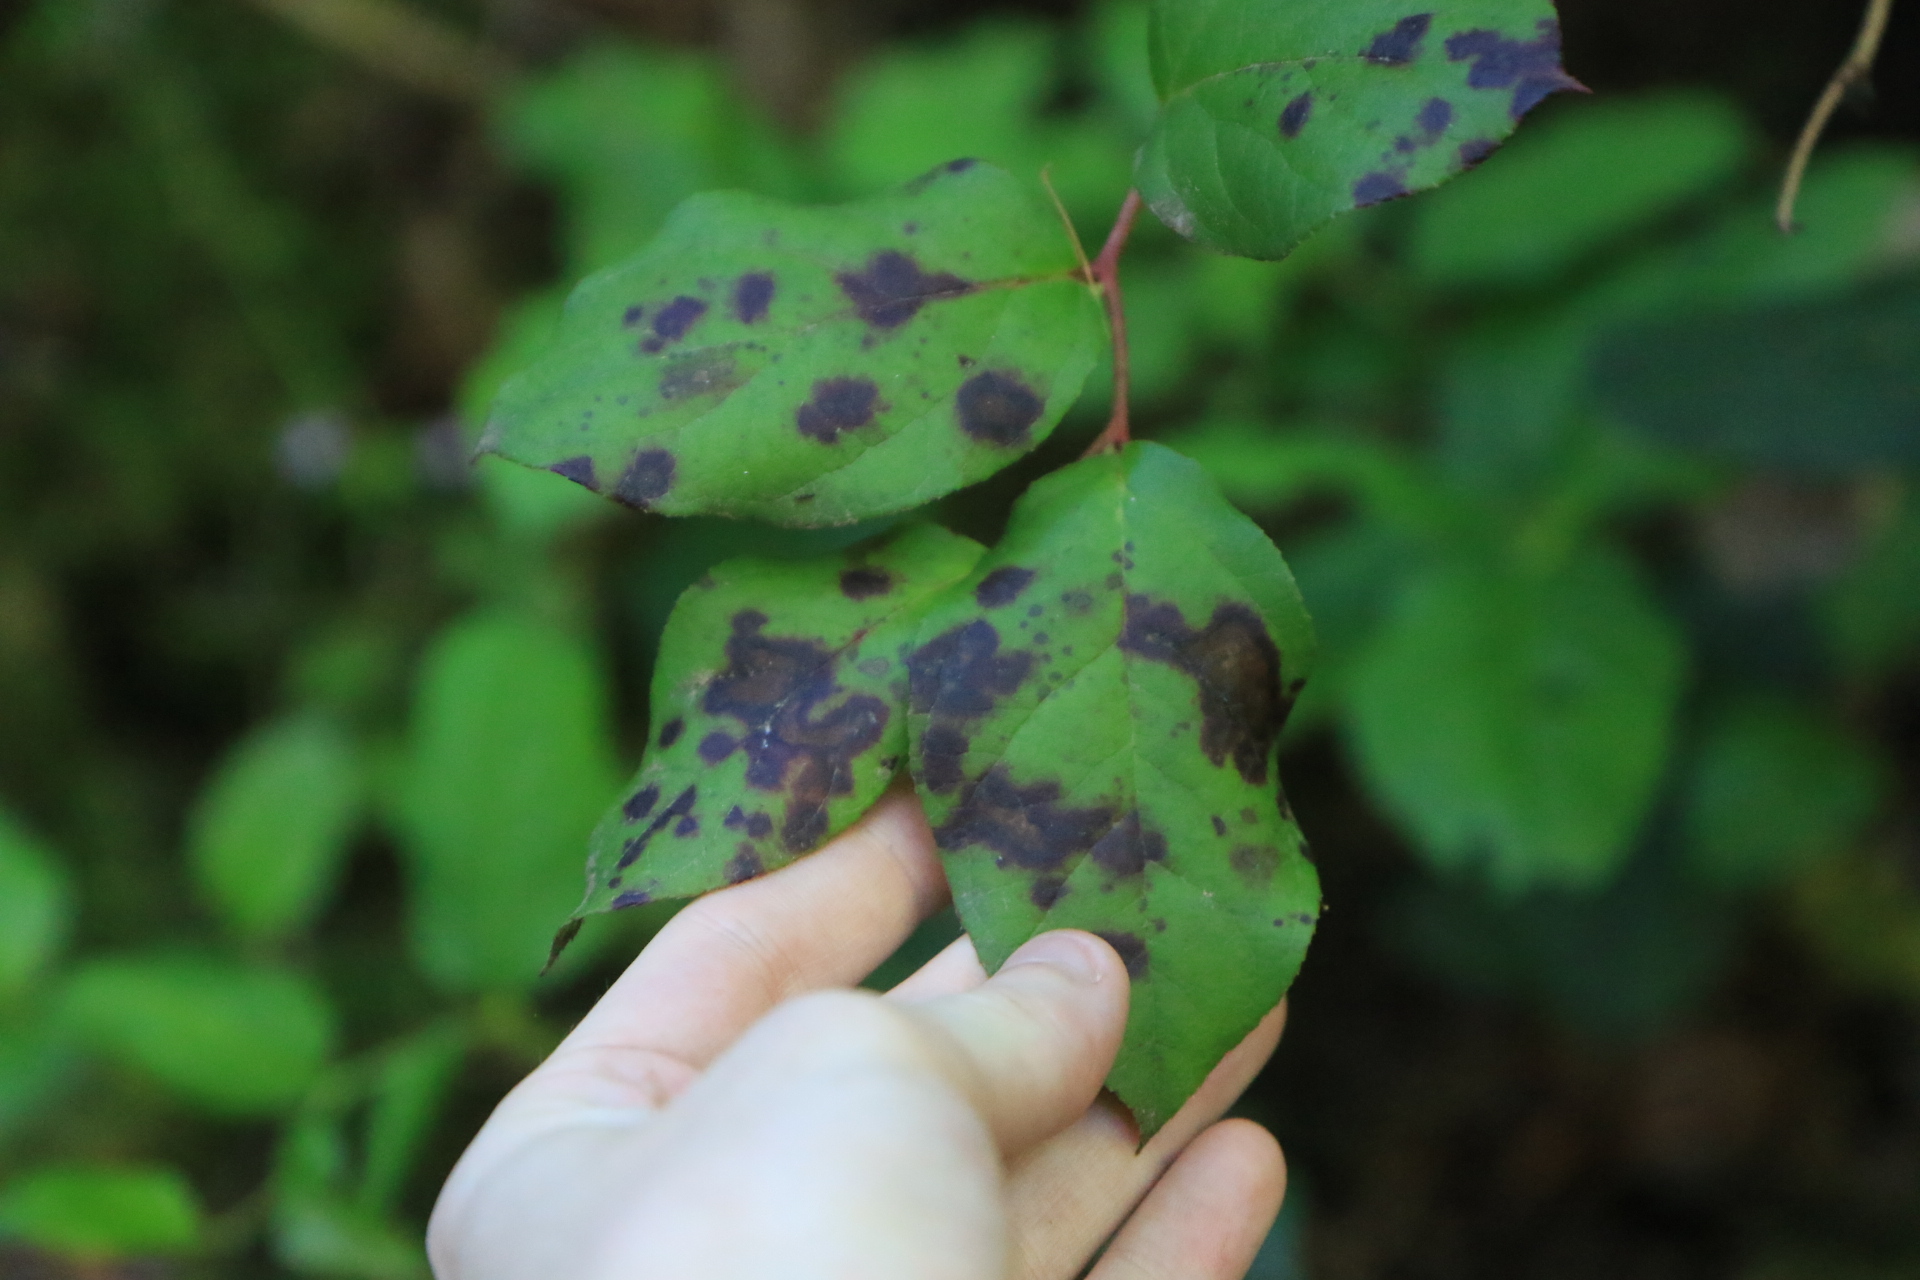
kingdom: Plantae
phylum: Tracheophyta
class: Magnoliopsida
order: Ericales
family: Ericaceae
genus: Gaultheria
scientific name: Gaultheria shallon
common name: Shallon
